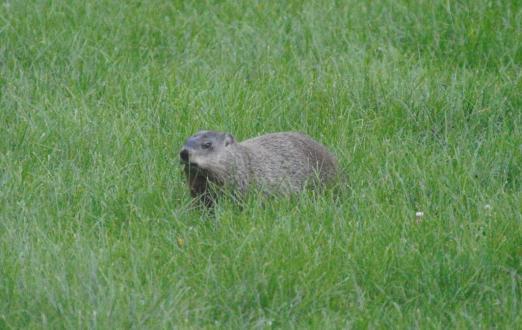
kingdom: Animalia
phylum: Chordata
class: Mammalia
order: Rodentia
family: Sciuridae
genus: Marmota
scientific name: Marmota monax
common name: Groundhog
